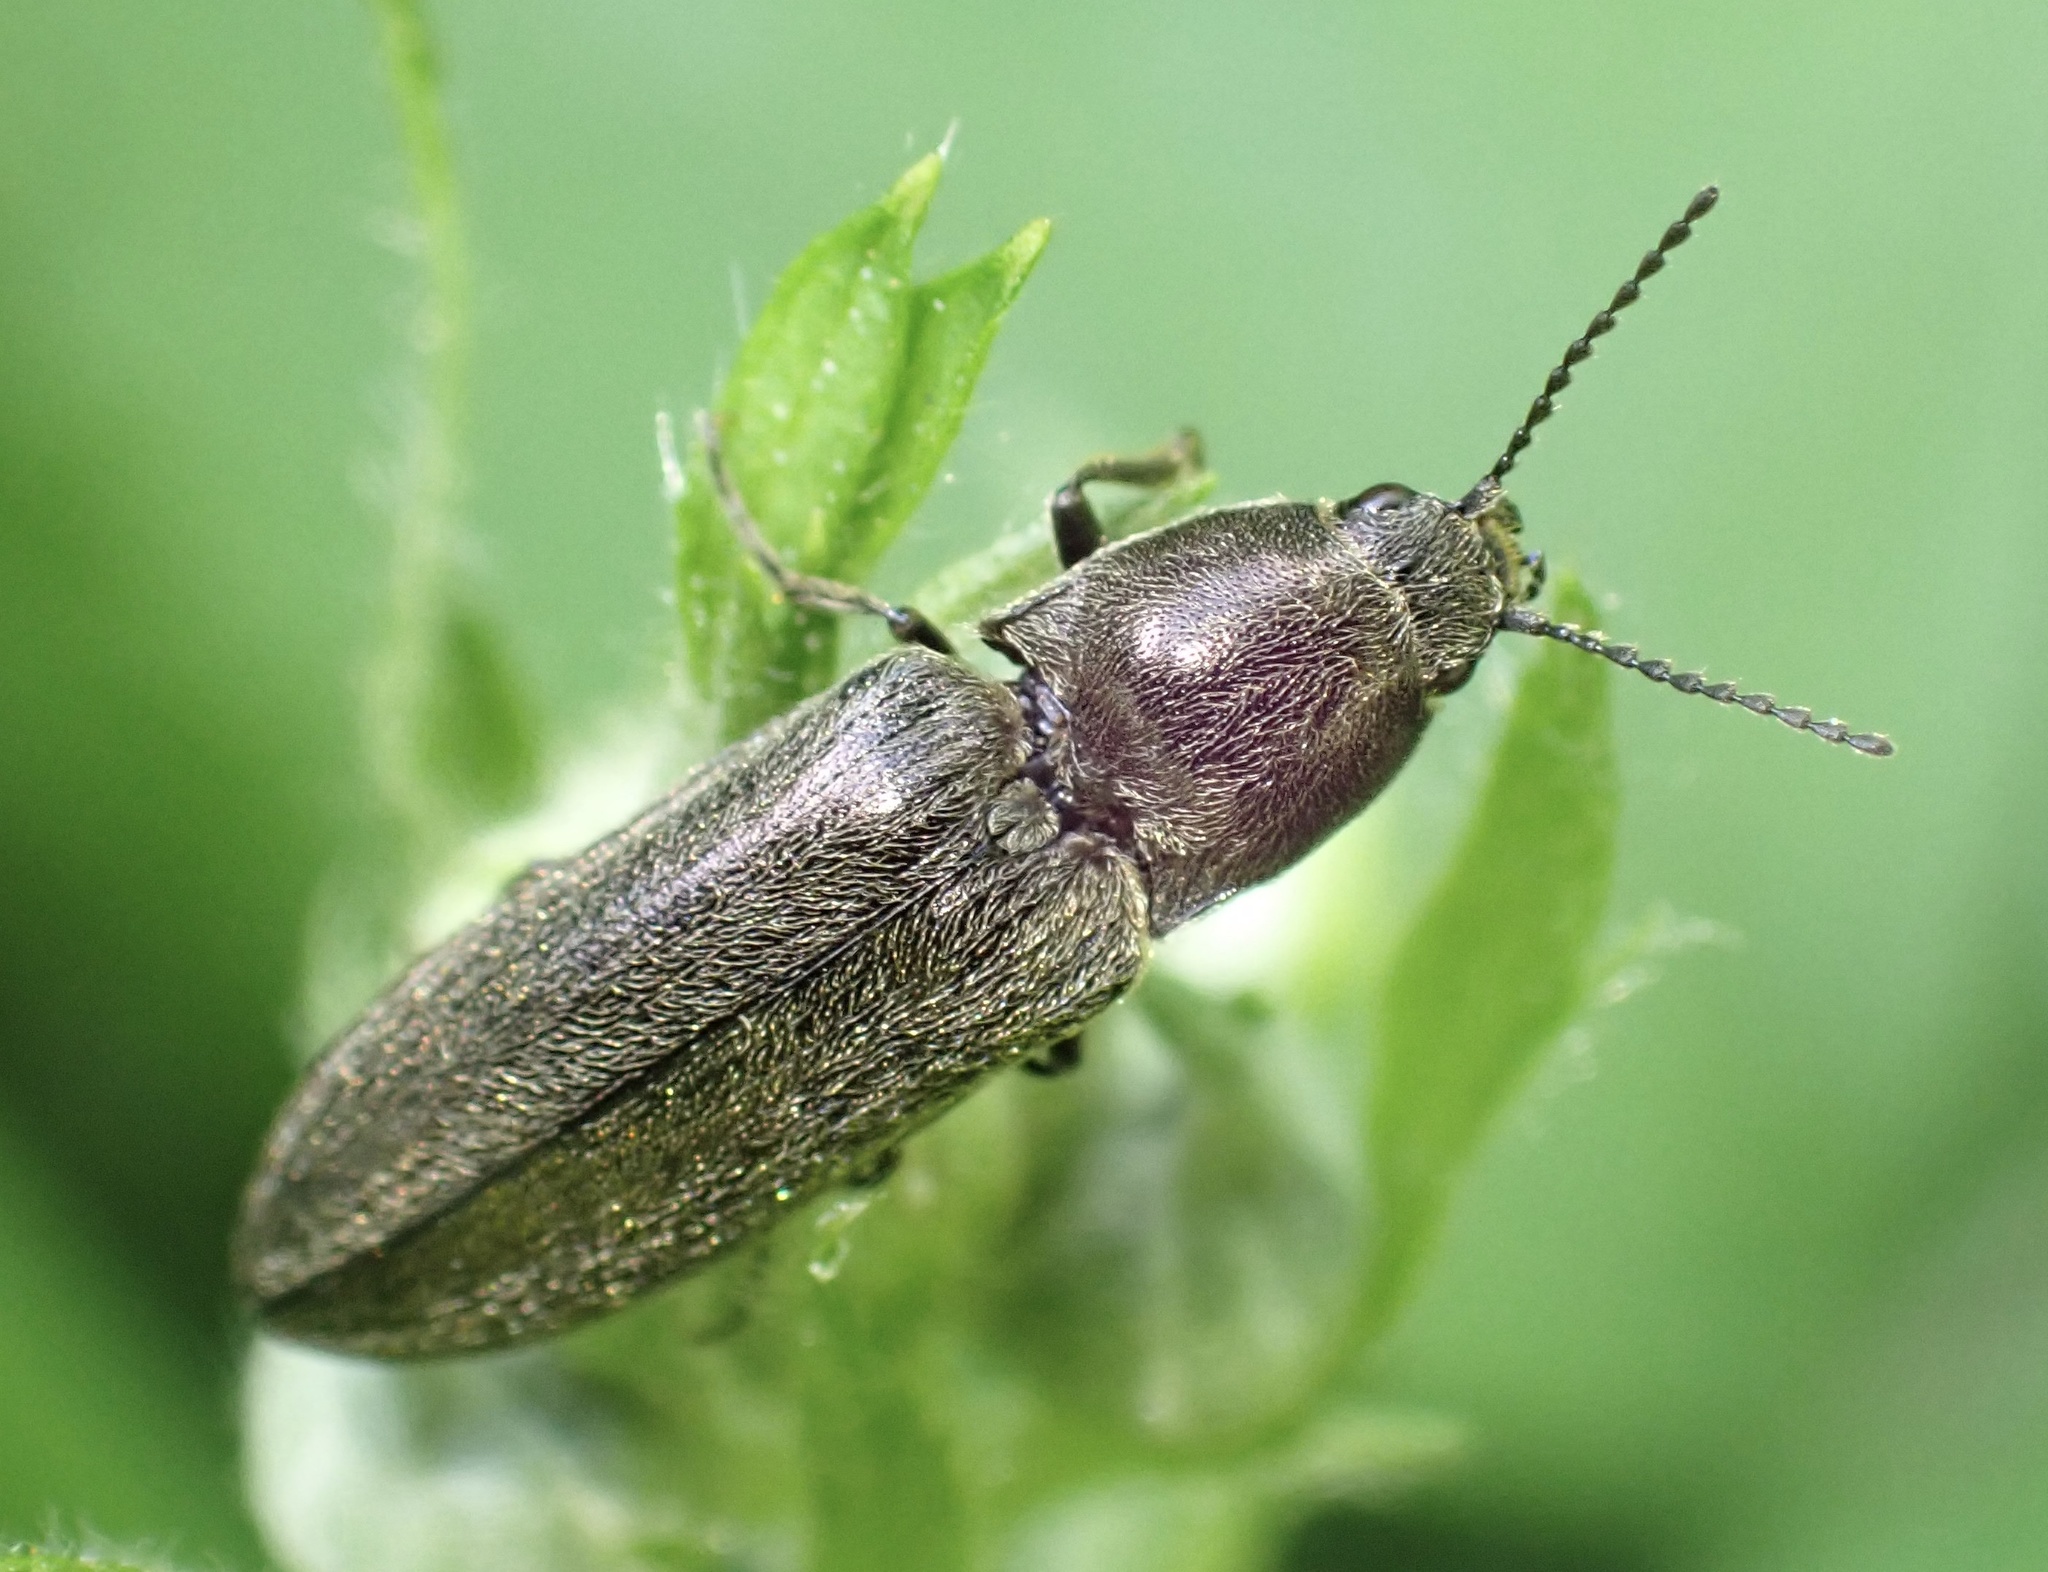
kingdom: Animalia
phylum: Arthropoda
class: Insecta
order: Coleoptera
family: Elateridae
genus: Cidnopus
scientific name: Cidnopus aeruginosus
